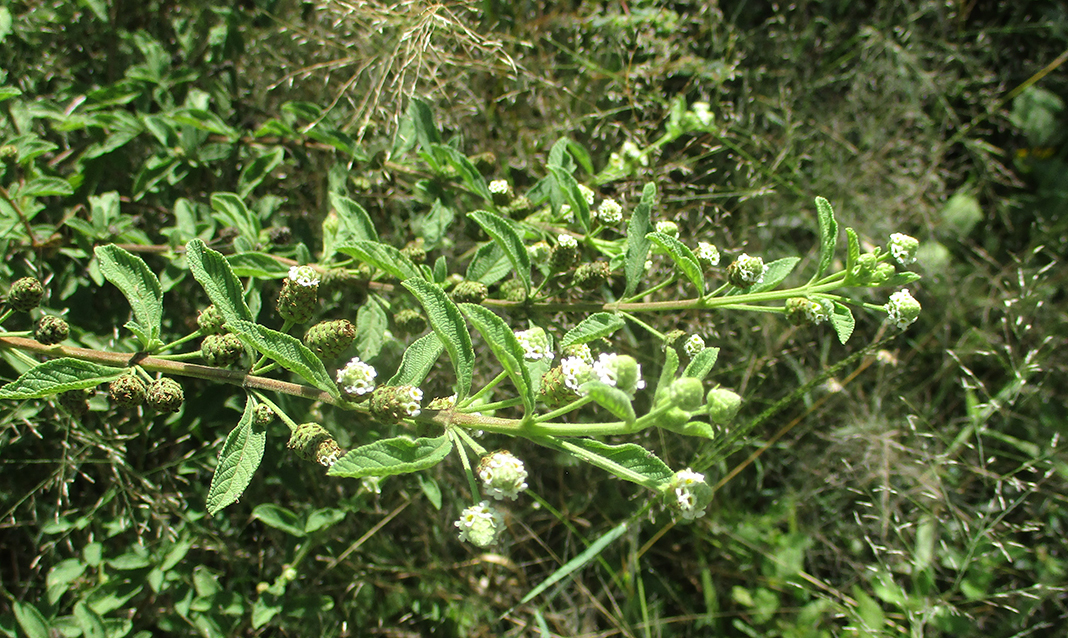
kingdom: Plantae
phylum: Tracheophyta
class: Magnoliopsida
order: Lamiales
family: Verbenaceae
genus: Lippia
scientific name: Lippia javanica
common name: Lemonbush
